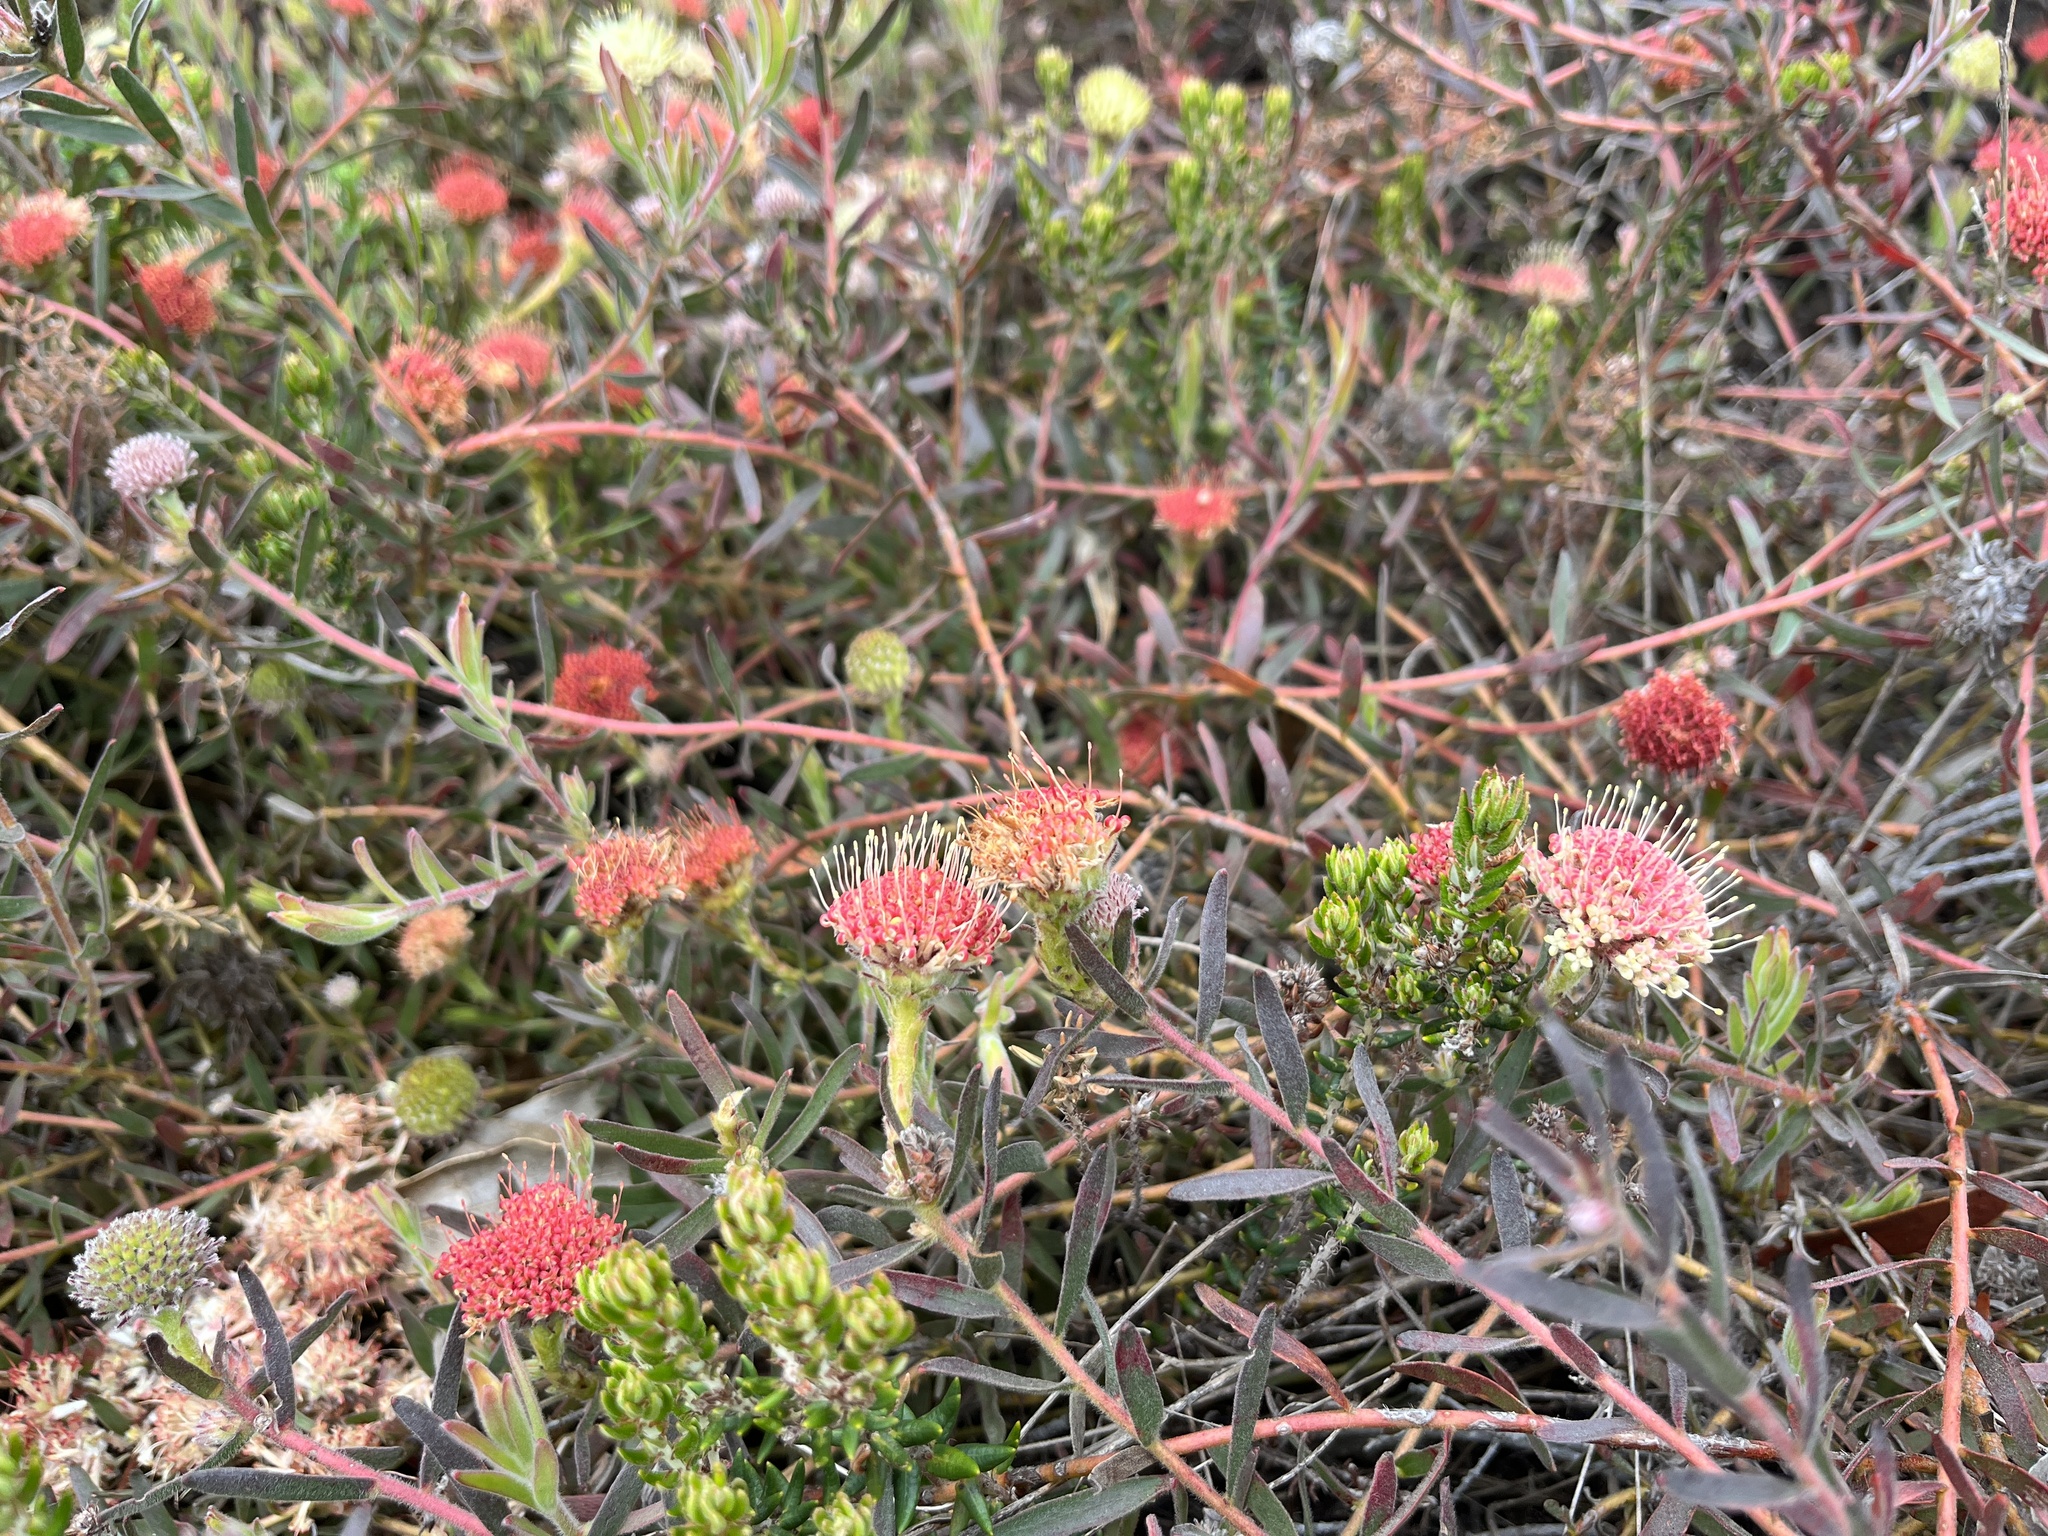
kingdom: Plantae
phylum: Tracheophyta
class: Magnoliopsida
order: Proteales
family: Proteaceae
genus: Leucospermum
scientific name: Leucospermum pedunculatum
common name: White-trailing pincushion
